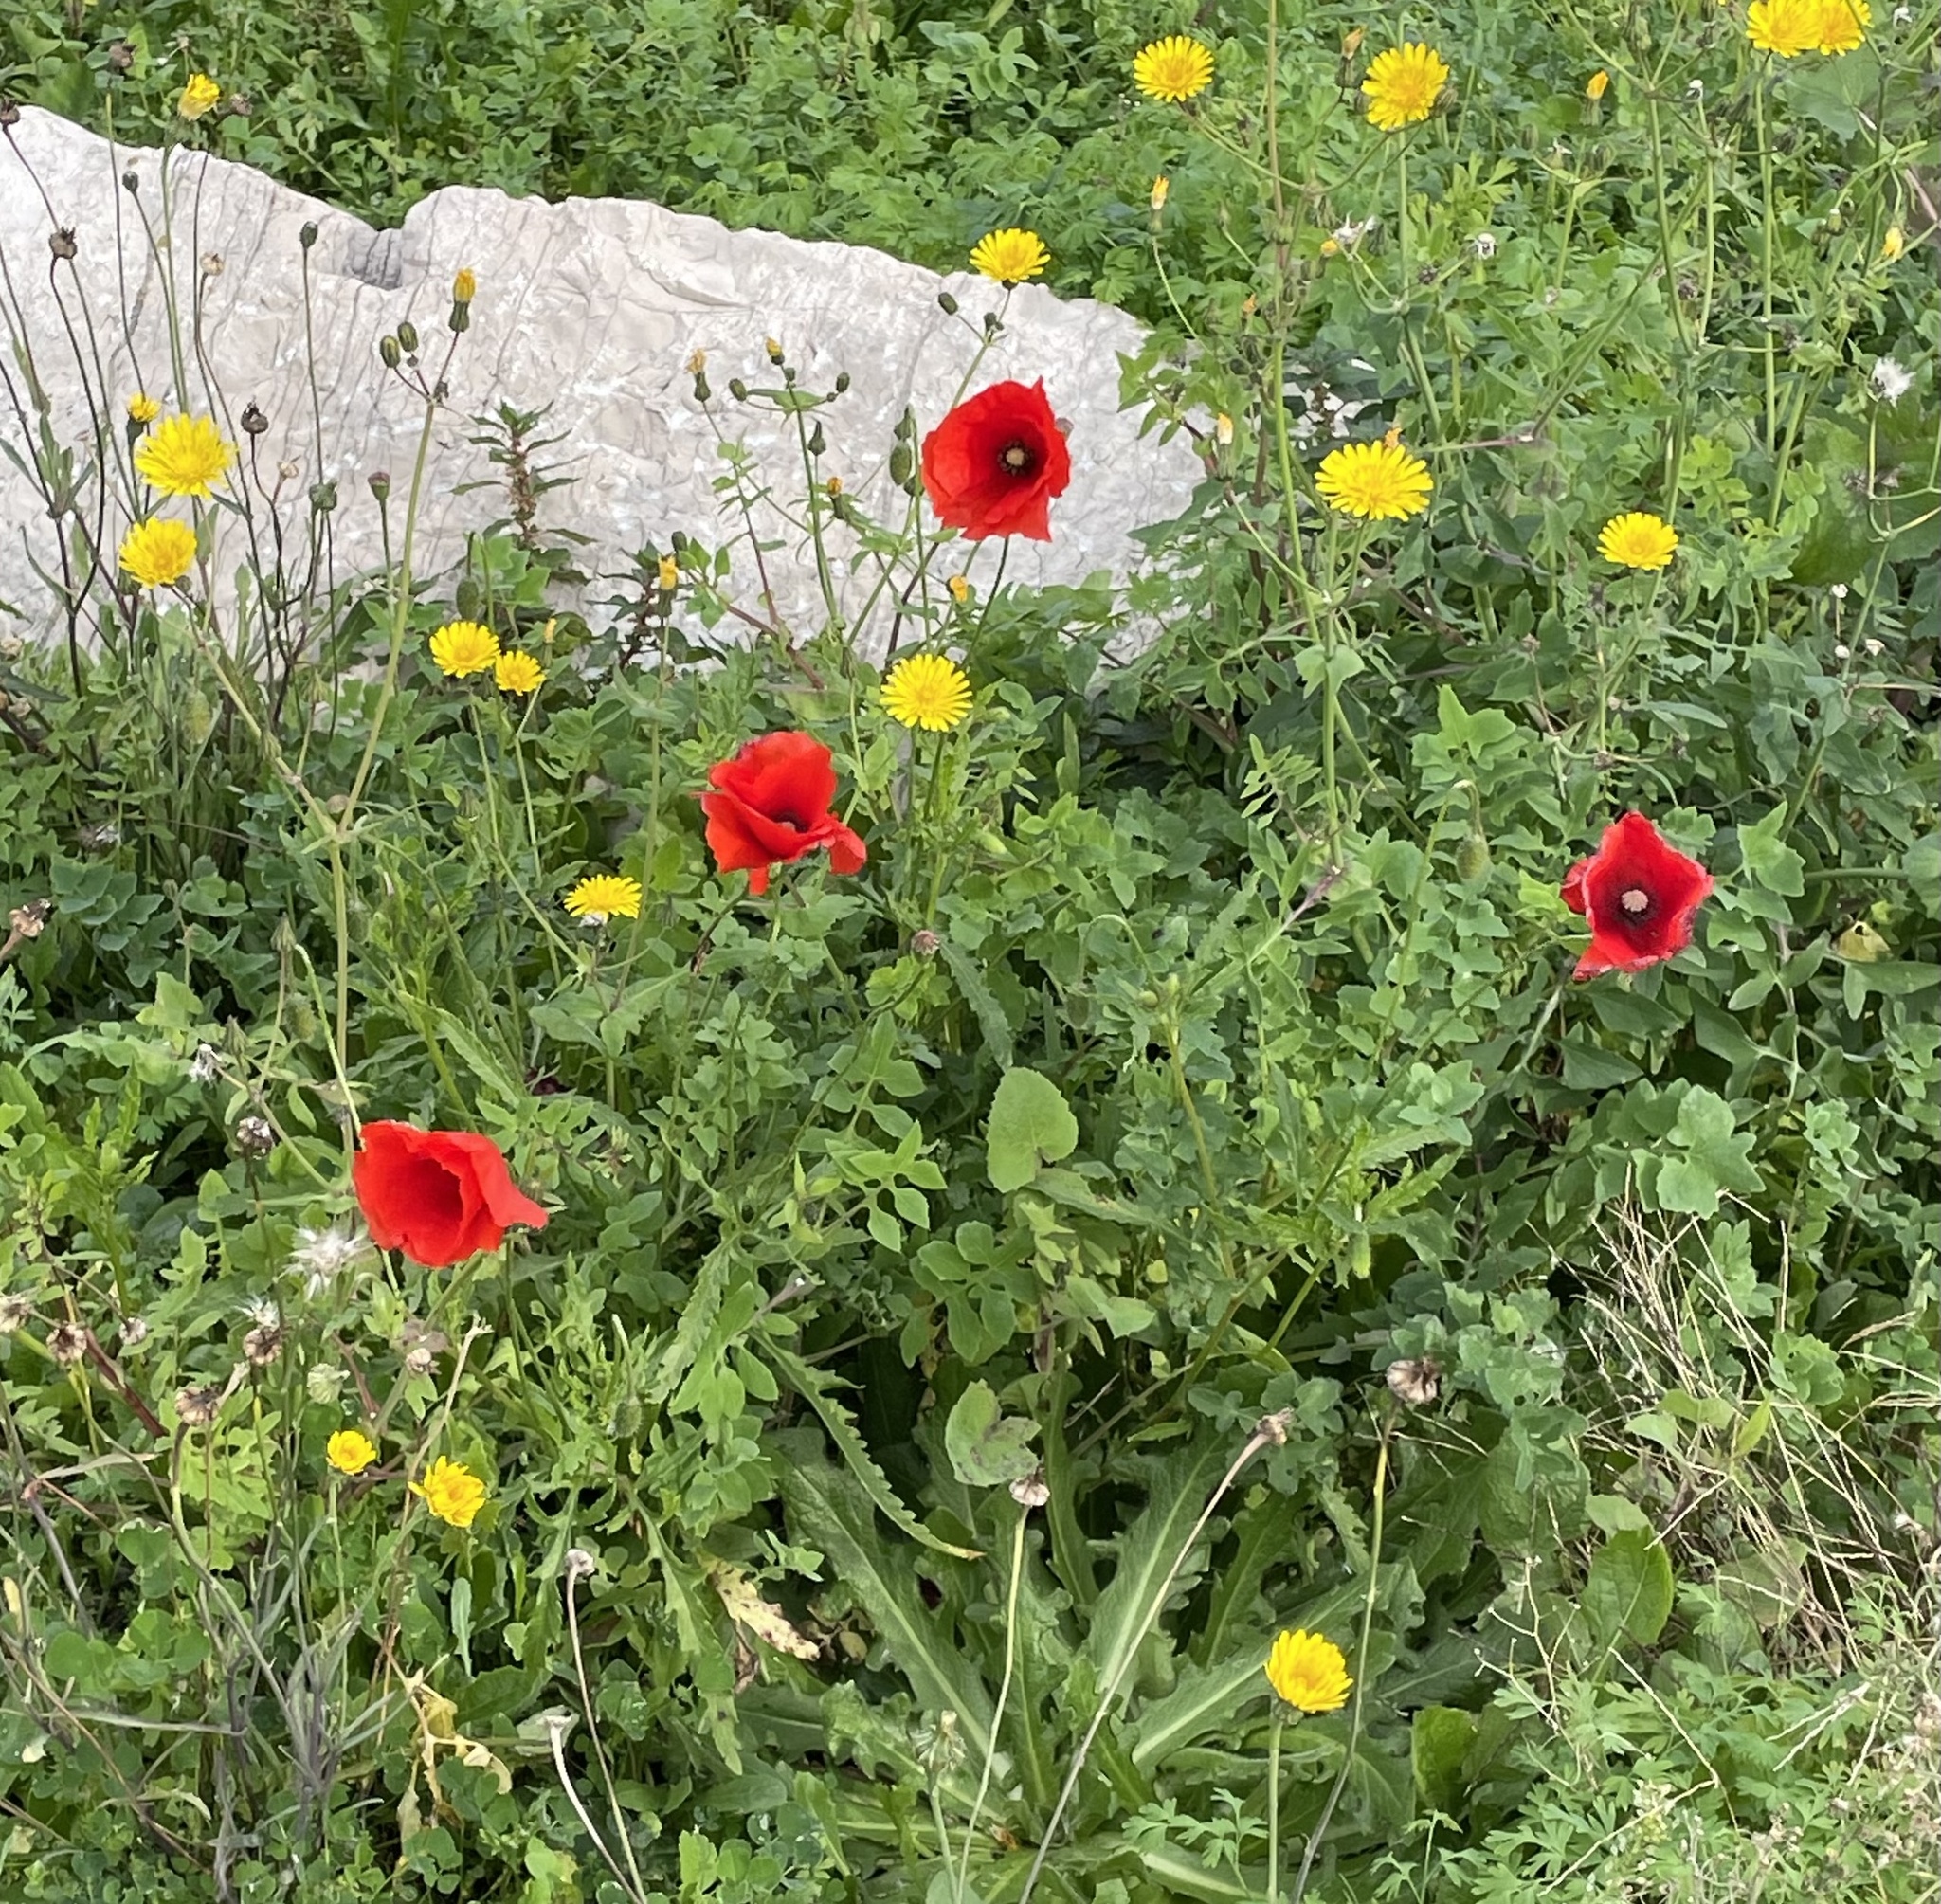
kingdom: Plantae
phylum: Tracheophyta
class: Magnoliopsida
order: Ranunculales
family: Papaveraceae
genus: Papaver
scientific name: Papaver rhoeas
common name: Corn poppy
